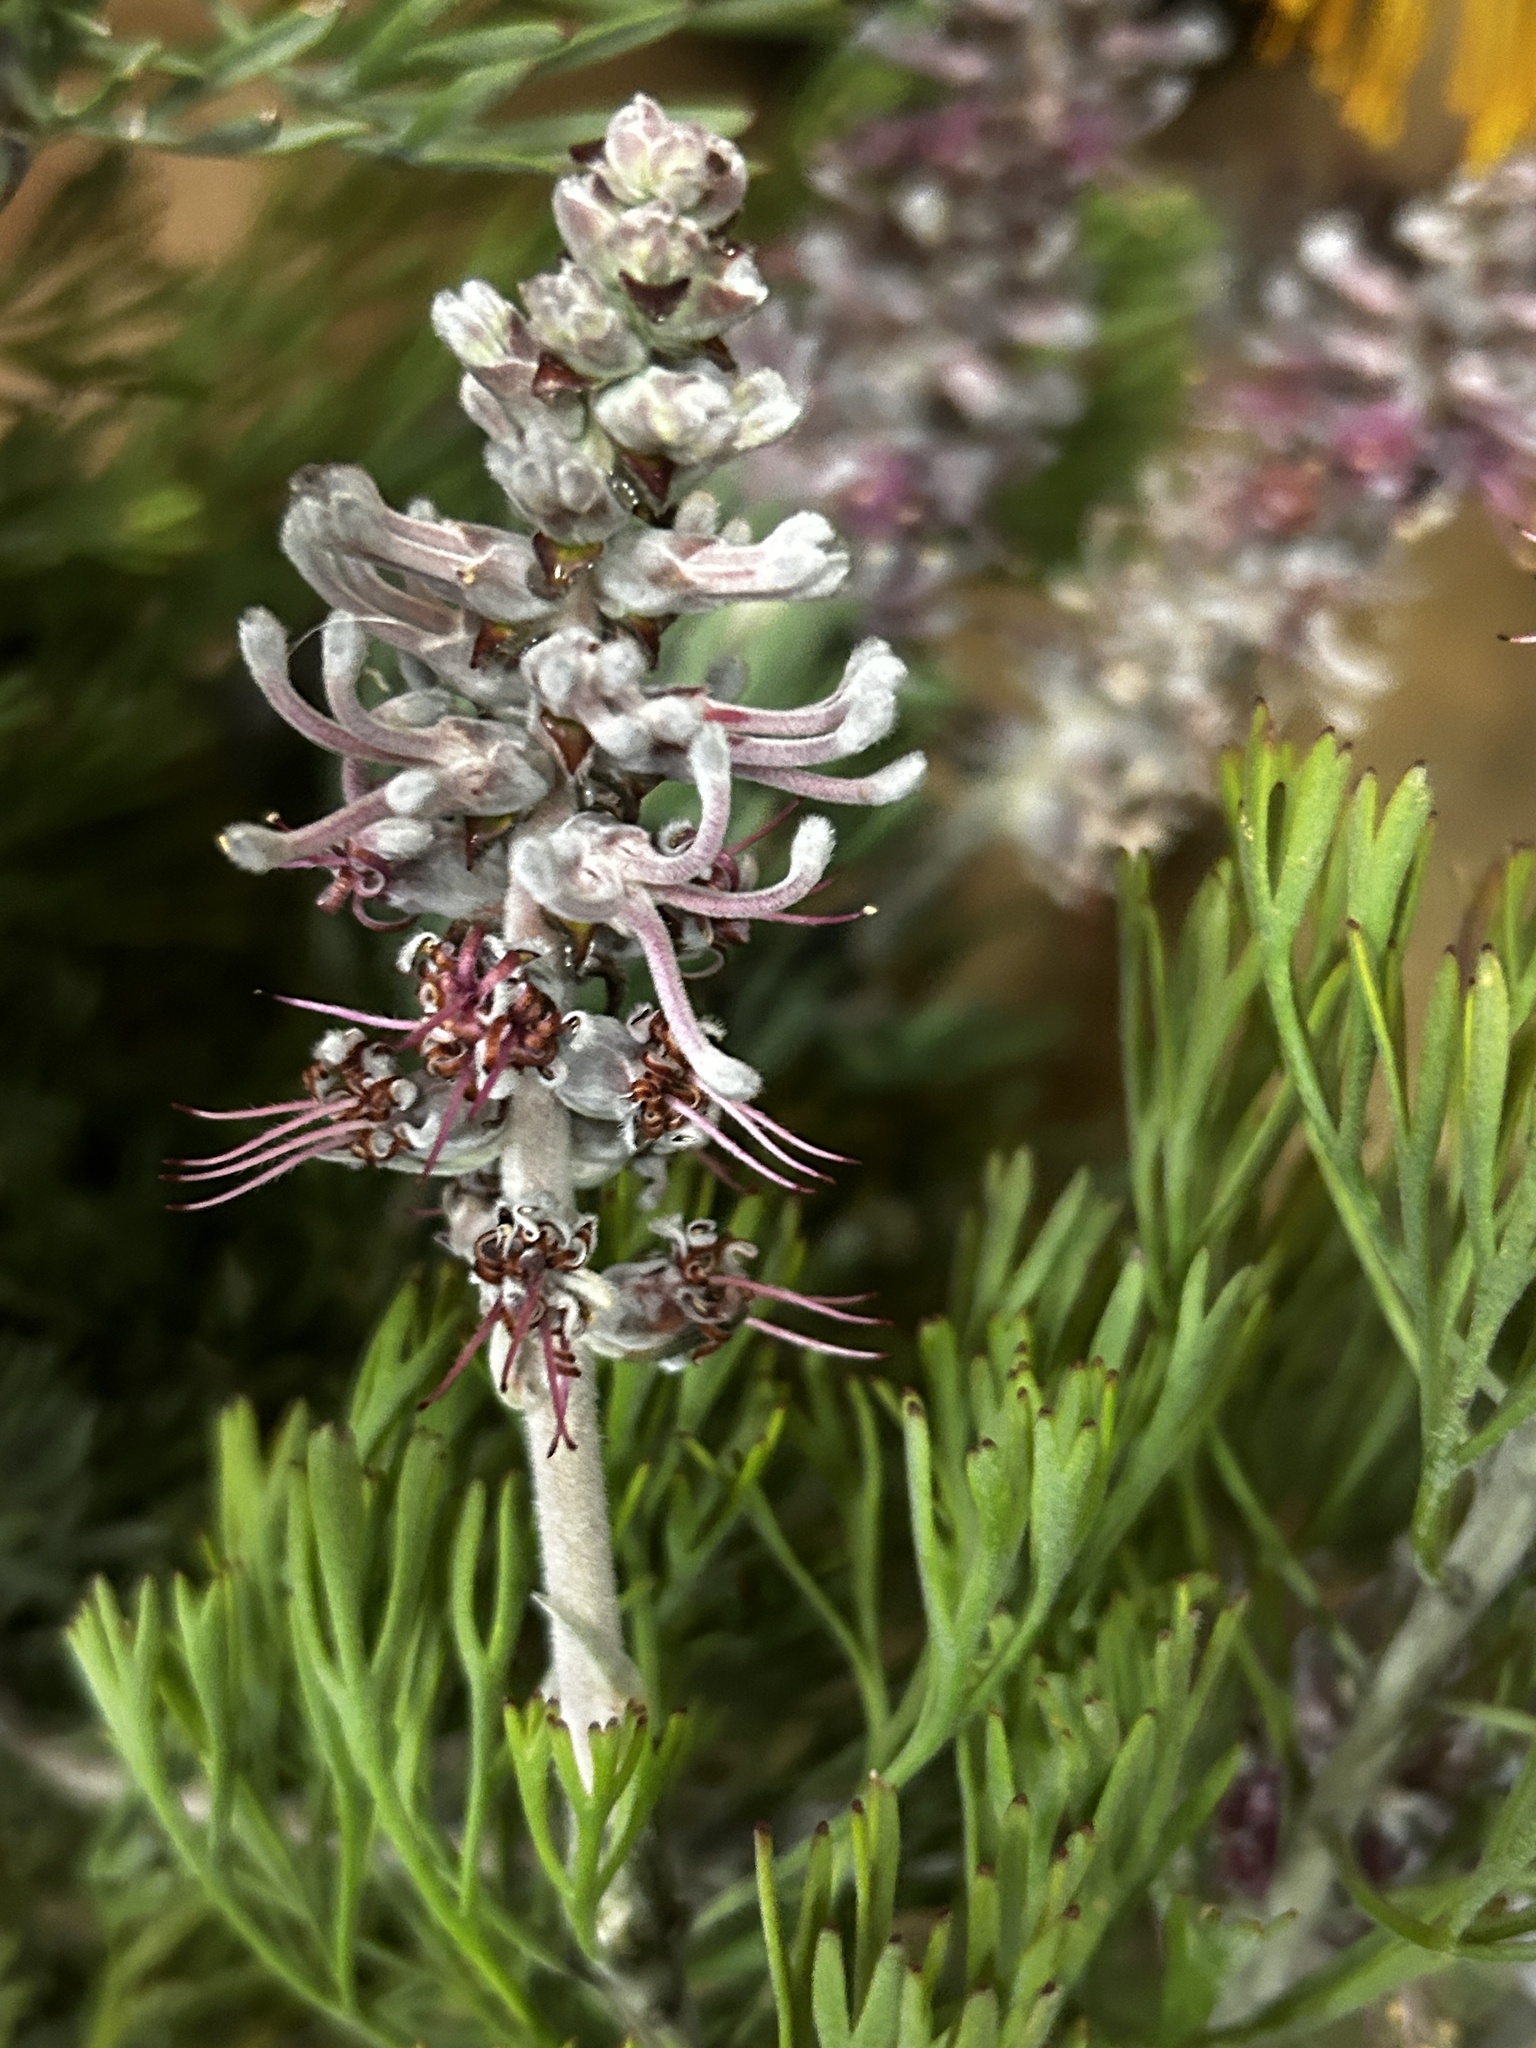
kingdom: Plantae
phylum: Tracheophyta
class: Magnoliopsida
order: Proteales
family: Proteaceae
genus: Paranomus
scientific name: Paranomus dispersus
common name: Long-head sceptre
